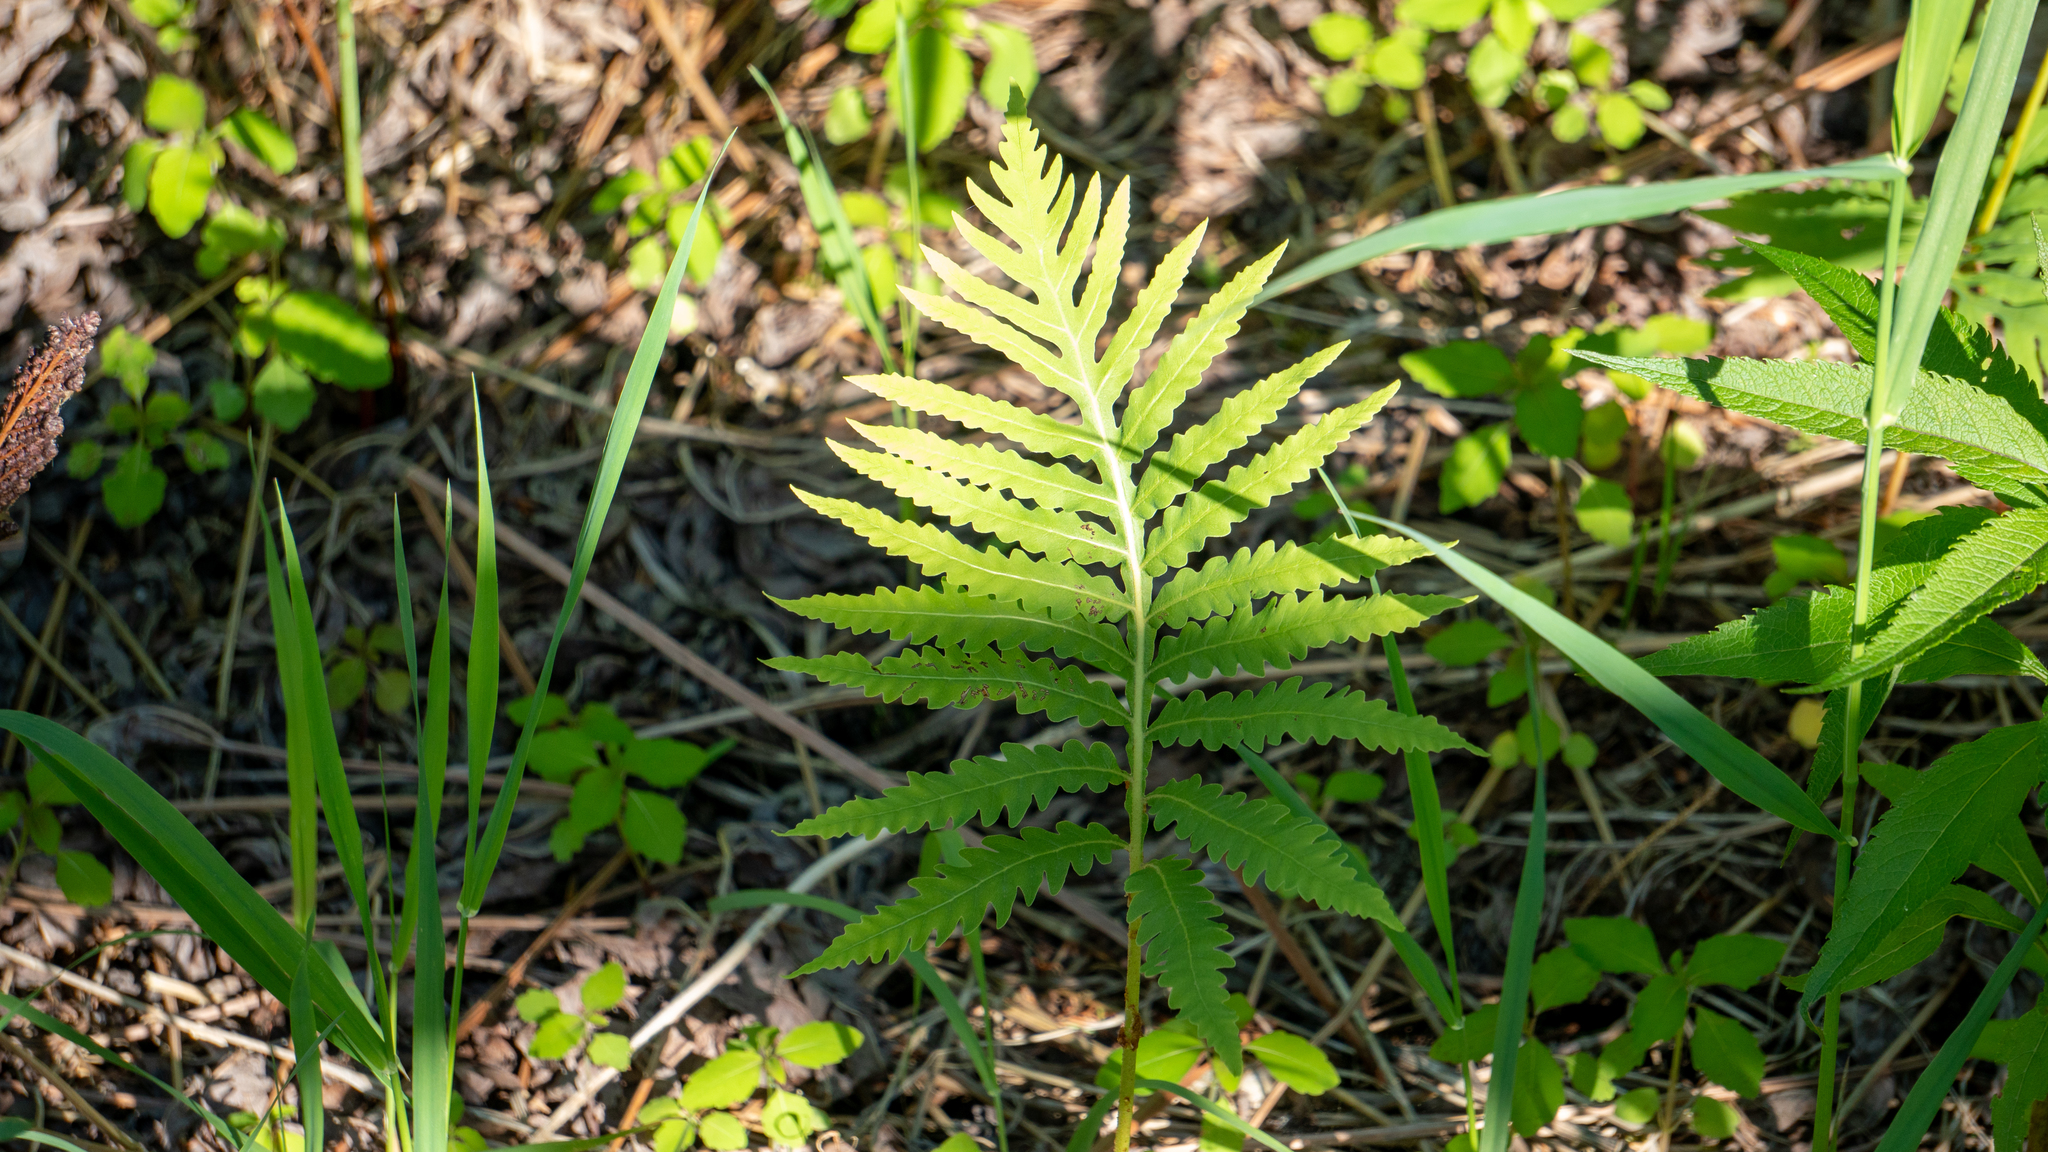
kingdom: Plantae
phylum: Tracheophyta
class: Polypodiopsida
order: Polypodiales
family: Onocleaceae
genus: Onoclea
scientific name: Onoclea sensibilis
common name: Sensitive fern
